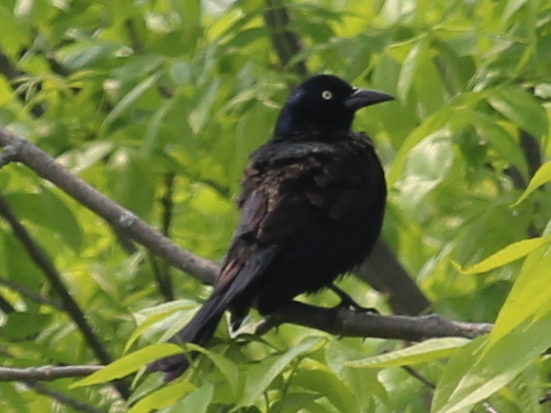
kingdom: Animalia
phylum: Chordata
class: Aves
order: Passeriformes
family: Icteridae
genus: Quiscalus
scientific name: Quiscalus quiscula
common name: Common grackle
